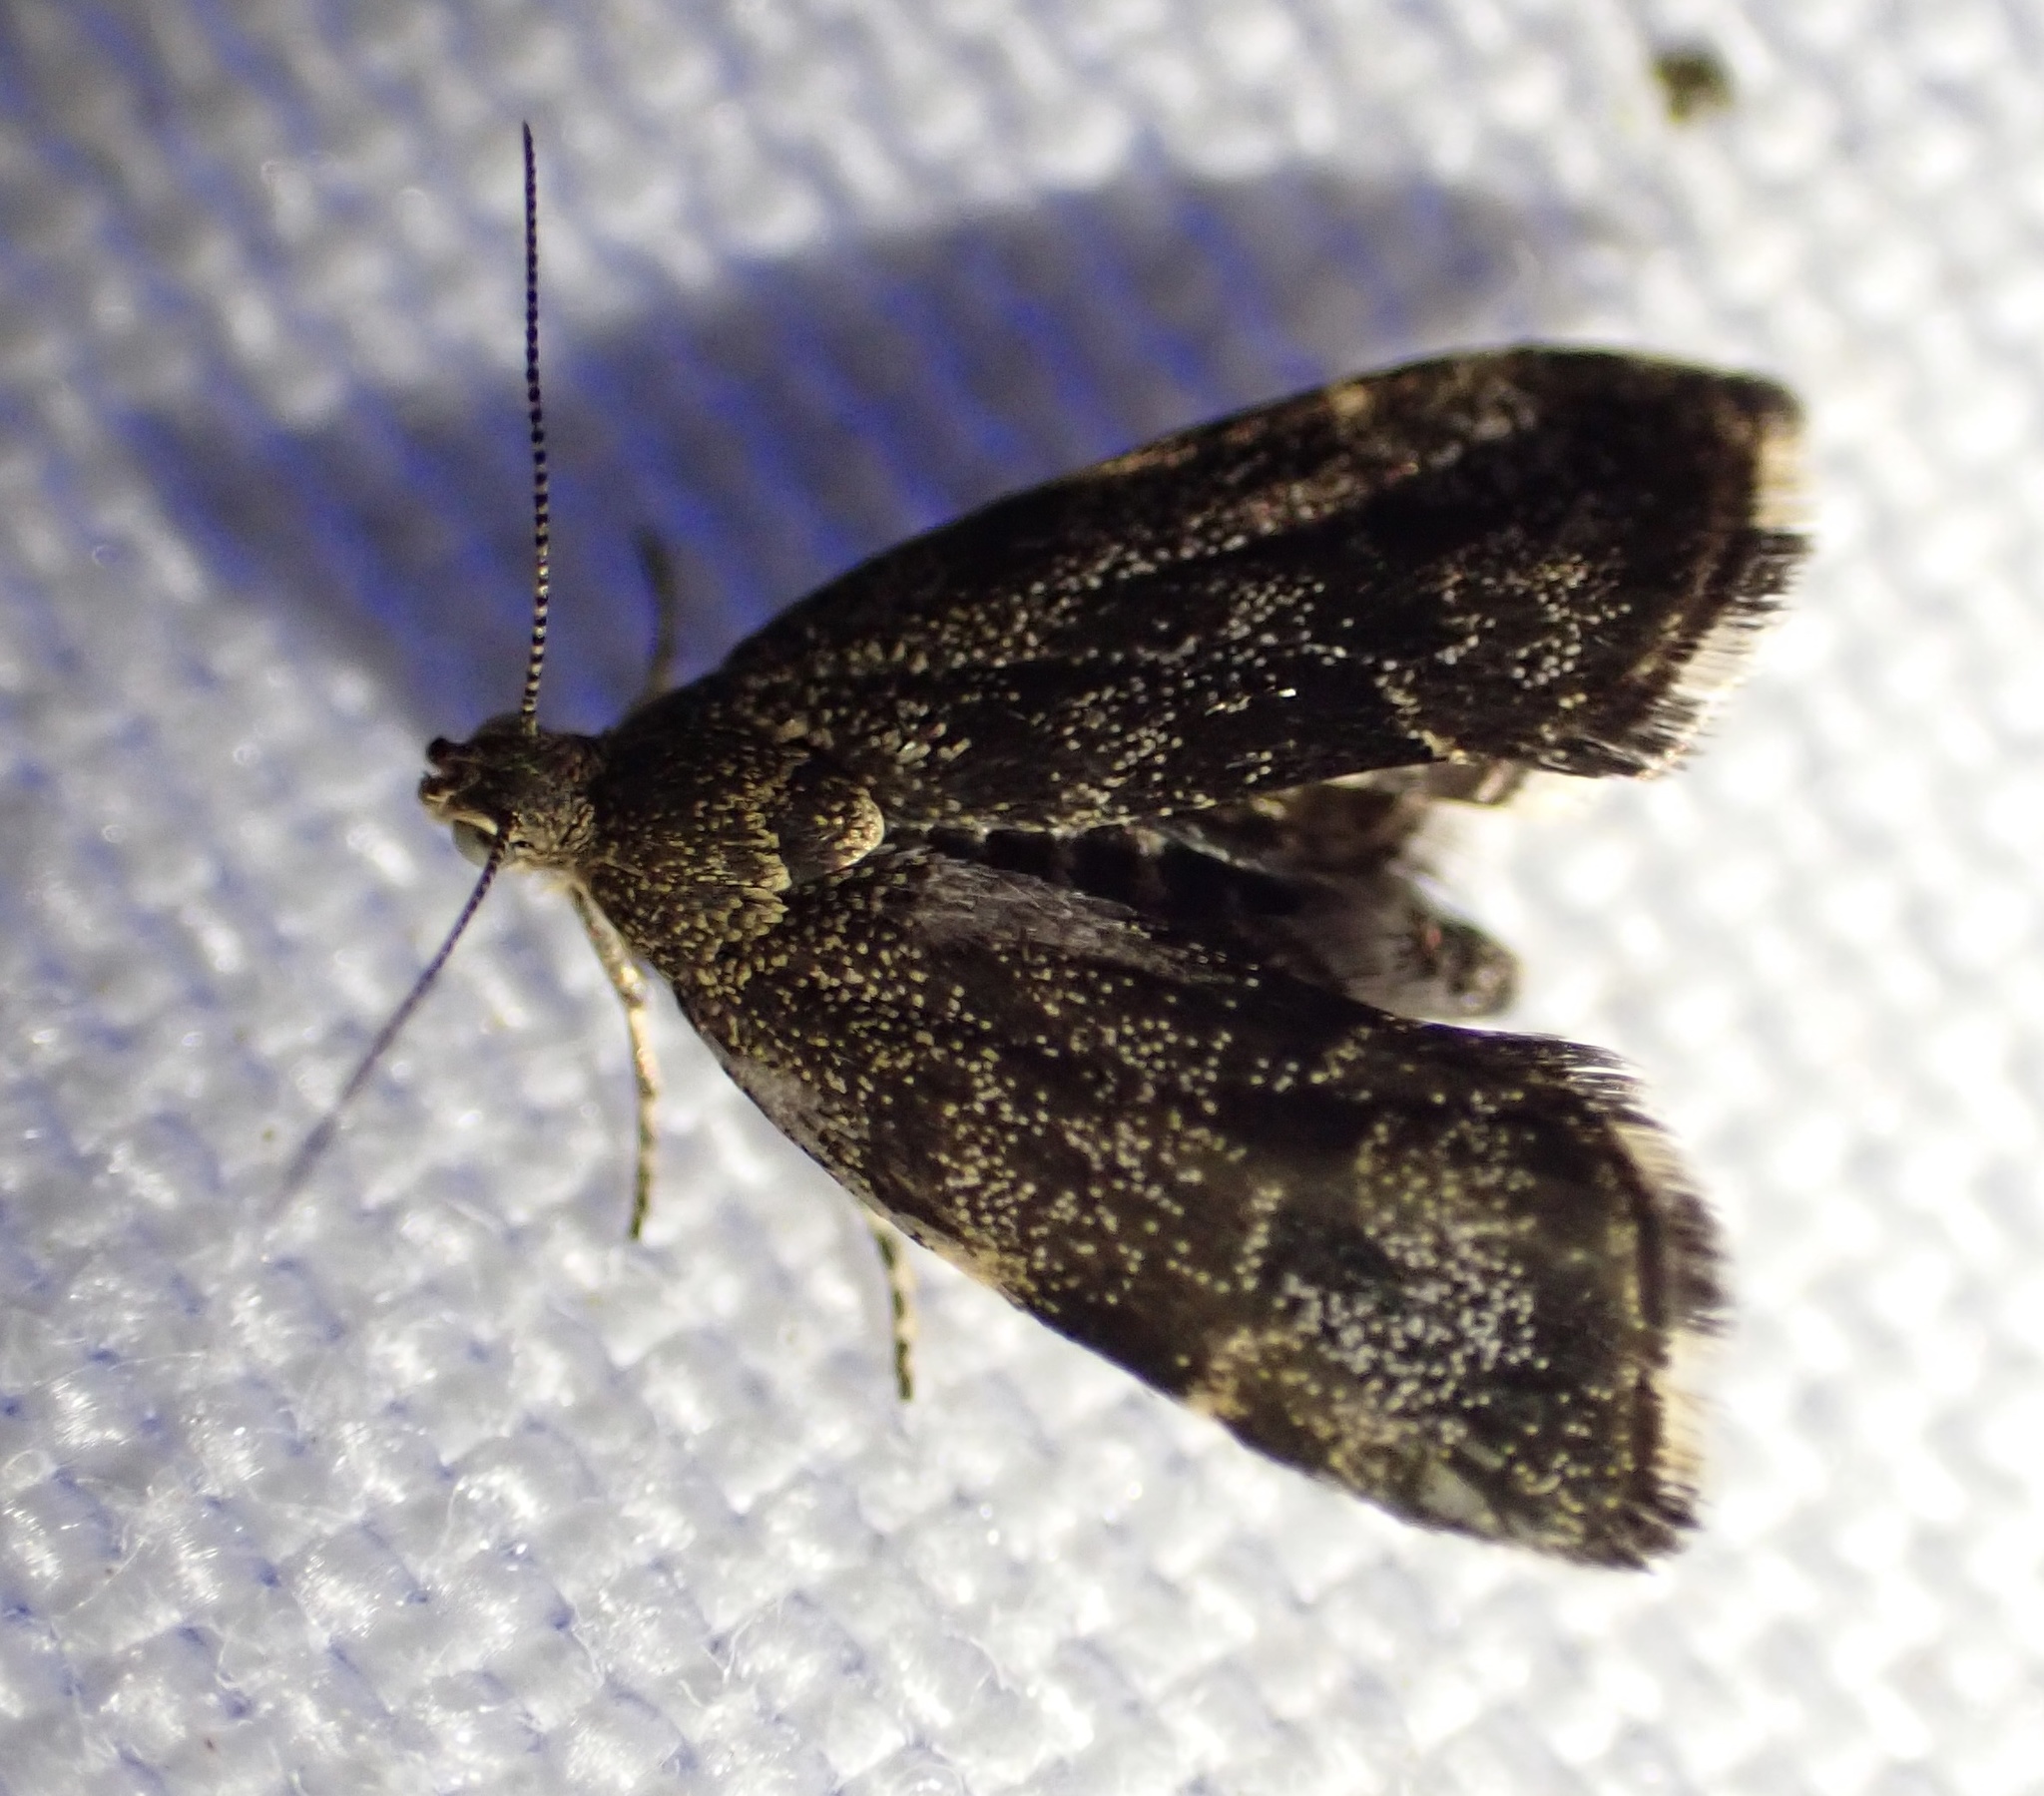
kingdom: Animalia
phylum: Arthropoda
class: Insecta
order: Lepidoptera
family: Choreutidae
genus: Anthophila
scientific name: Anthophila fabriciana
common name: Nettle-tap
